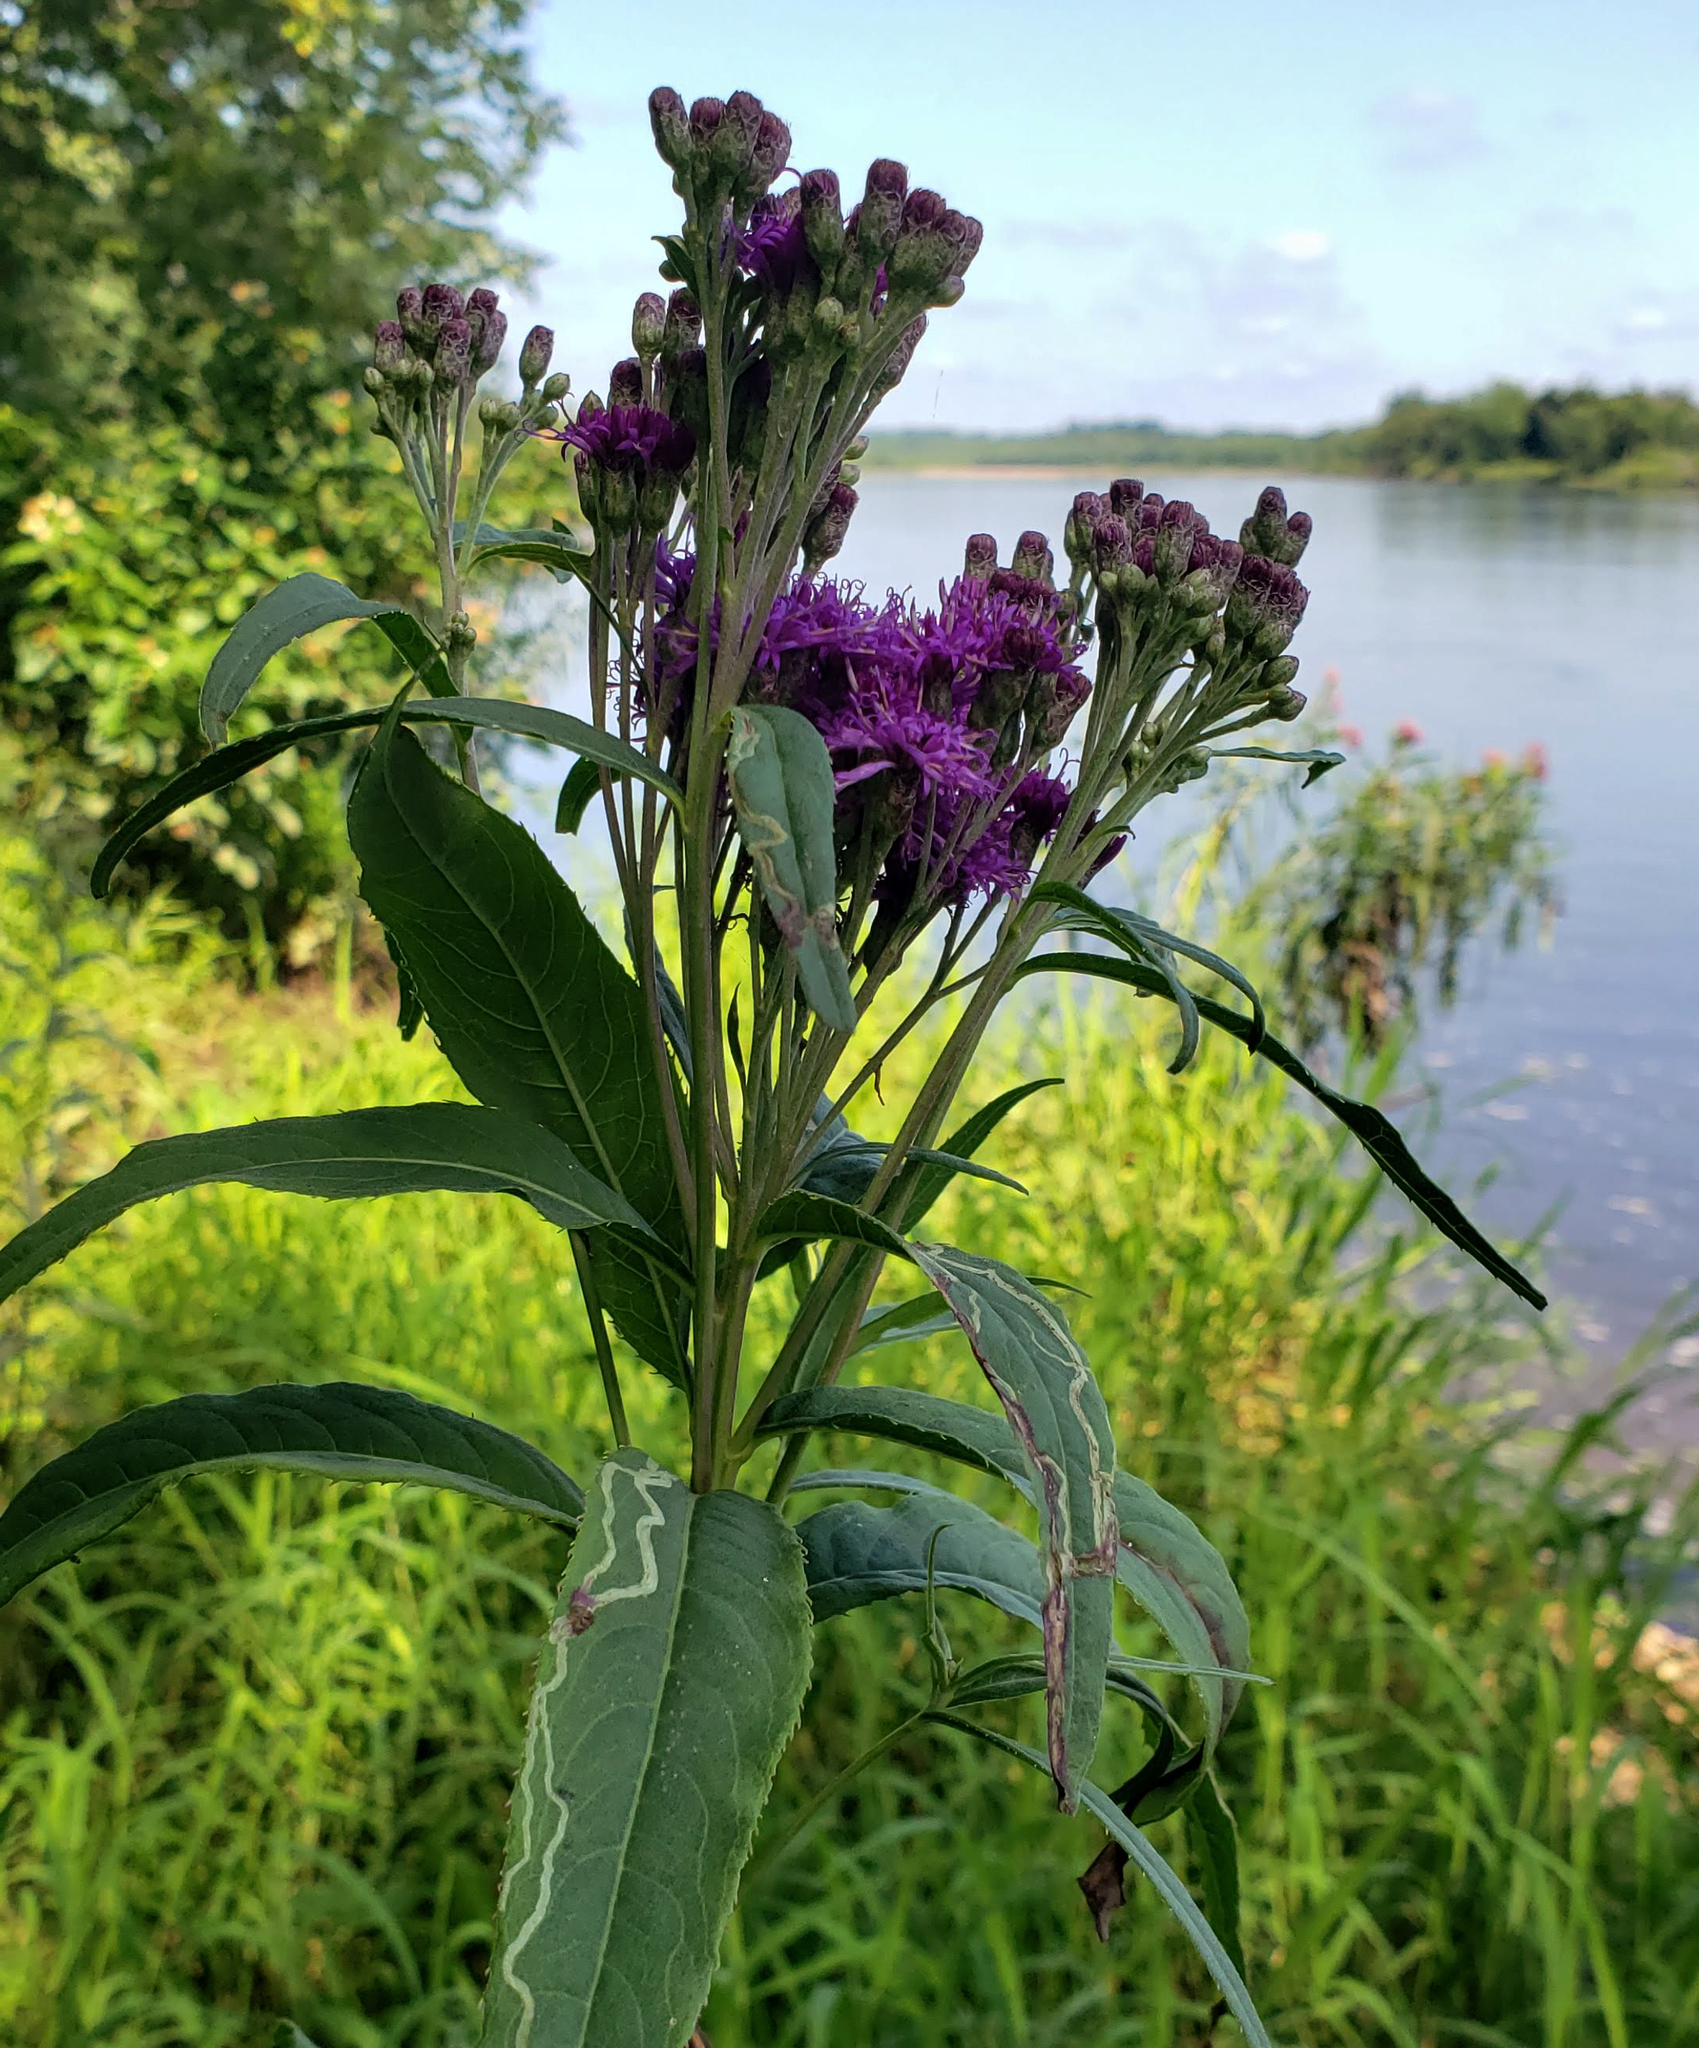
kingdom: Plantae
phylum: Tracheophyta
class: Magnoliopsida
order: Asterales
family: Asteraceae
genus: Vernonia
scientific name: Vernonia fasciculata
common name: Fascicled ironweed
